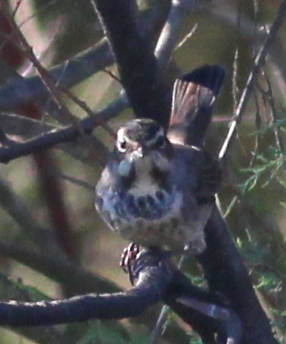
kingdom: Animalia
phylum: Chordata
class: Aves
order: Passeriformes
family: Muscicapidae
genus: Luscinia
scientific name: Luscinia svecica
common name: Bluethroat
